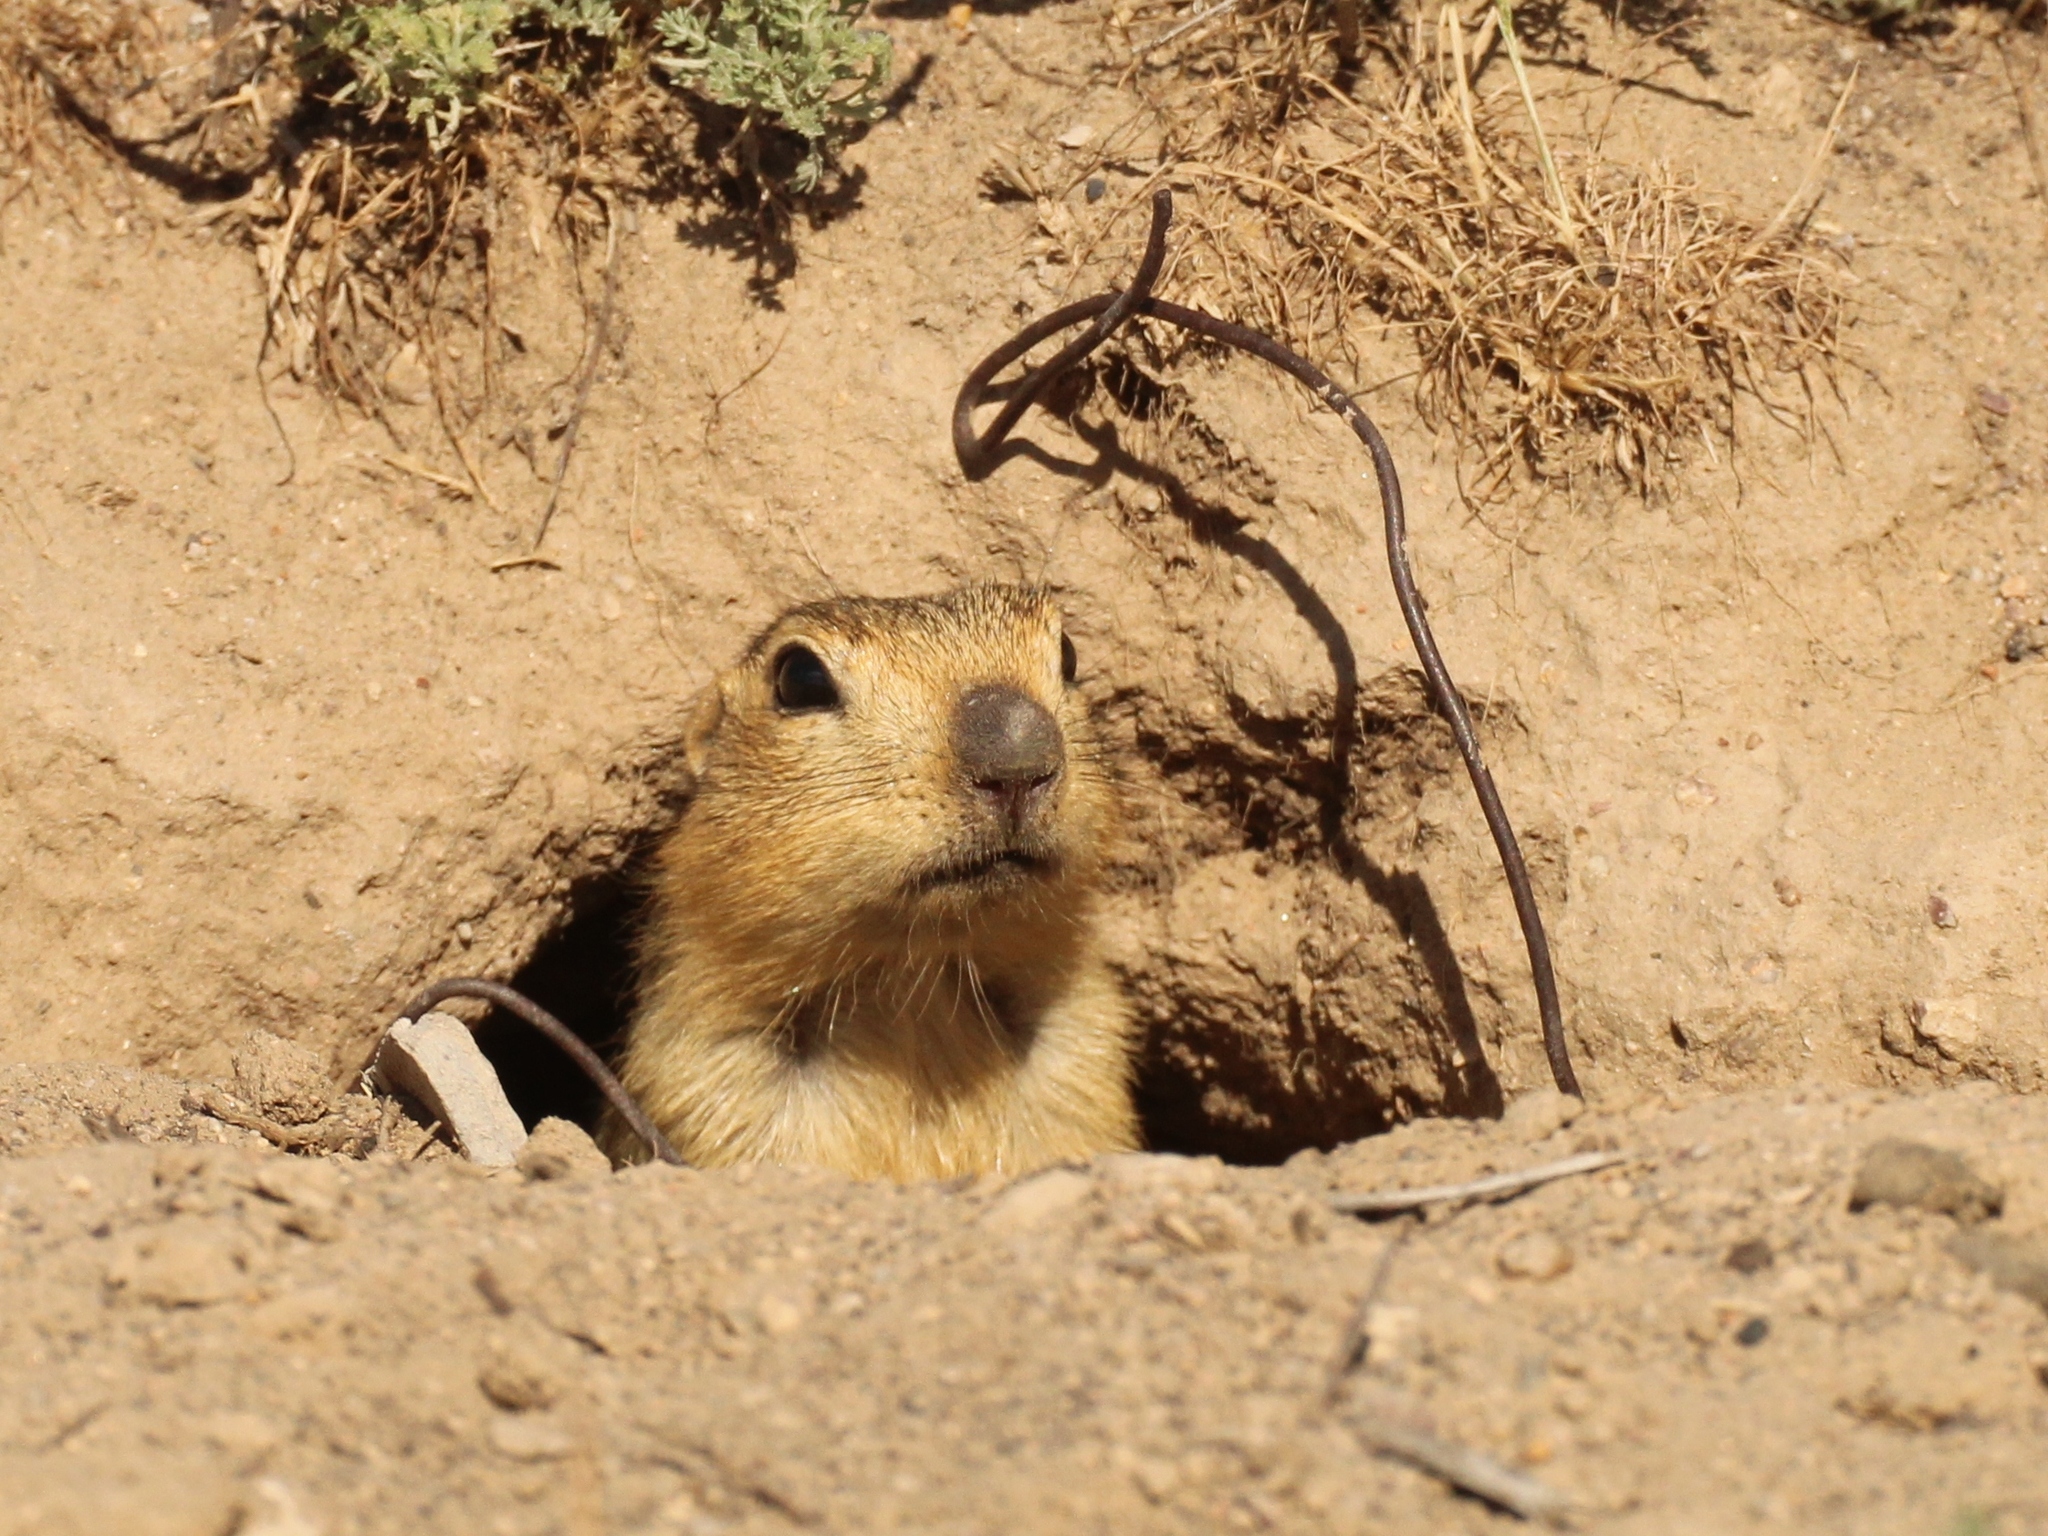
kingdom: Animalia
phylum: Chordata
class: Mammalia
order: Rodentia
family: Sciuridae
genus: Spermophilus
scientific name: Spermophilus fulvus
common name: Yellow ground squirrel
